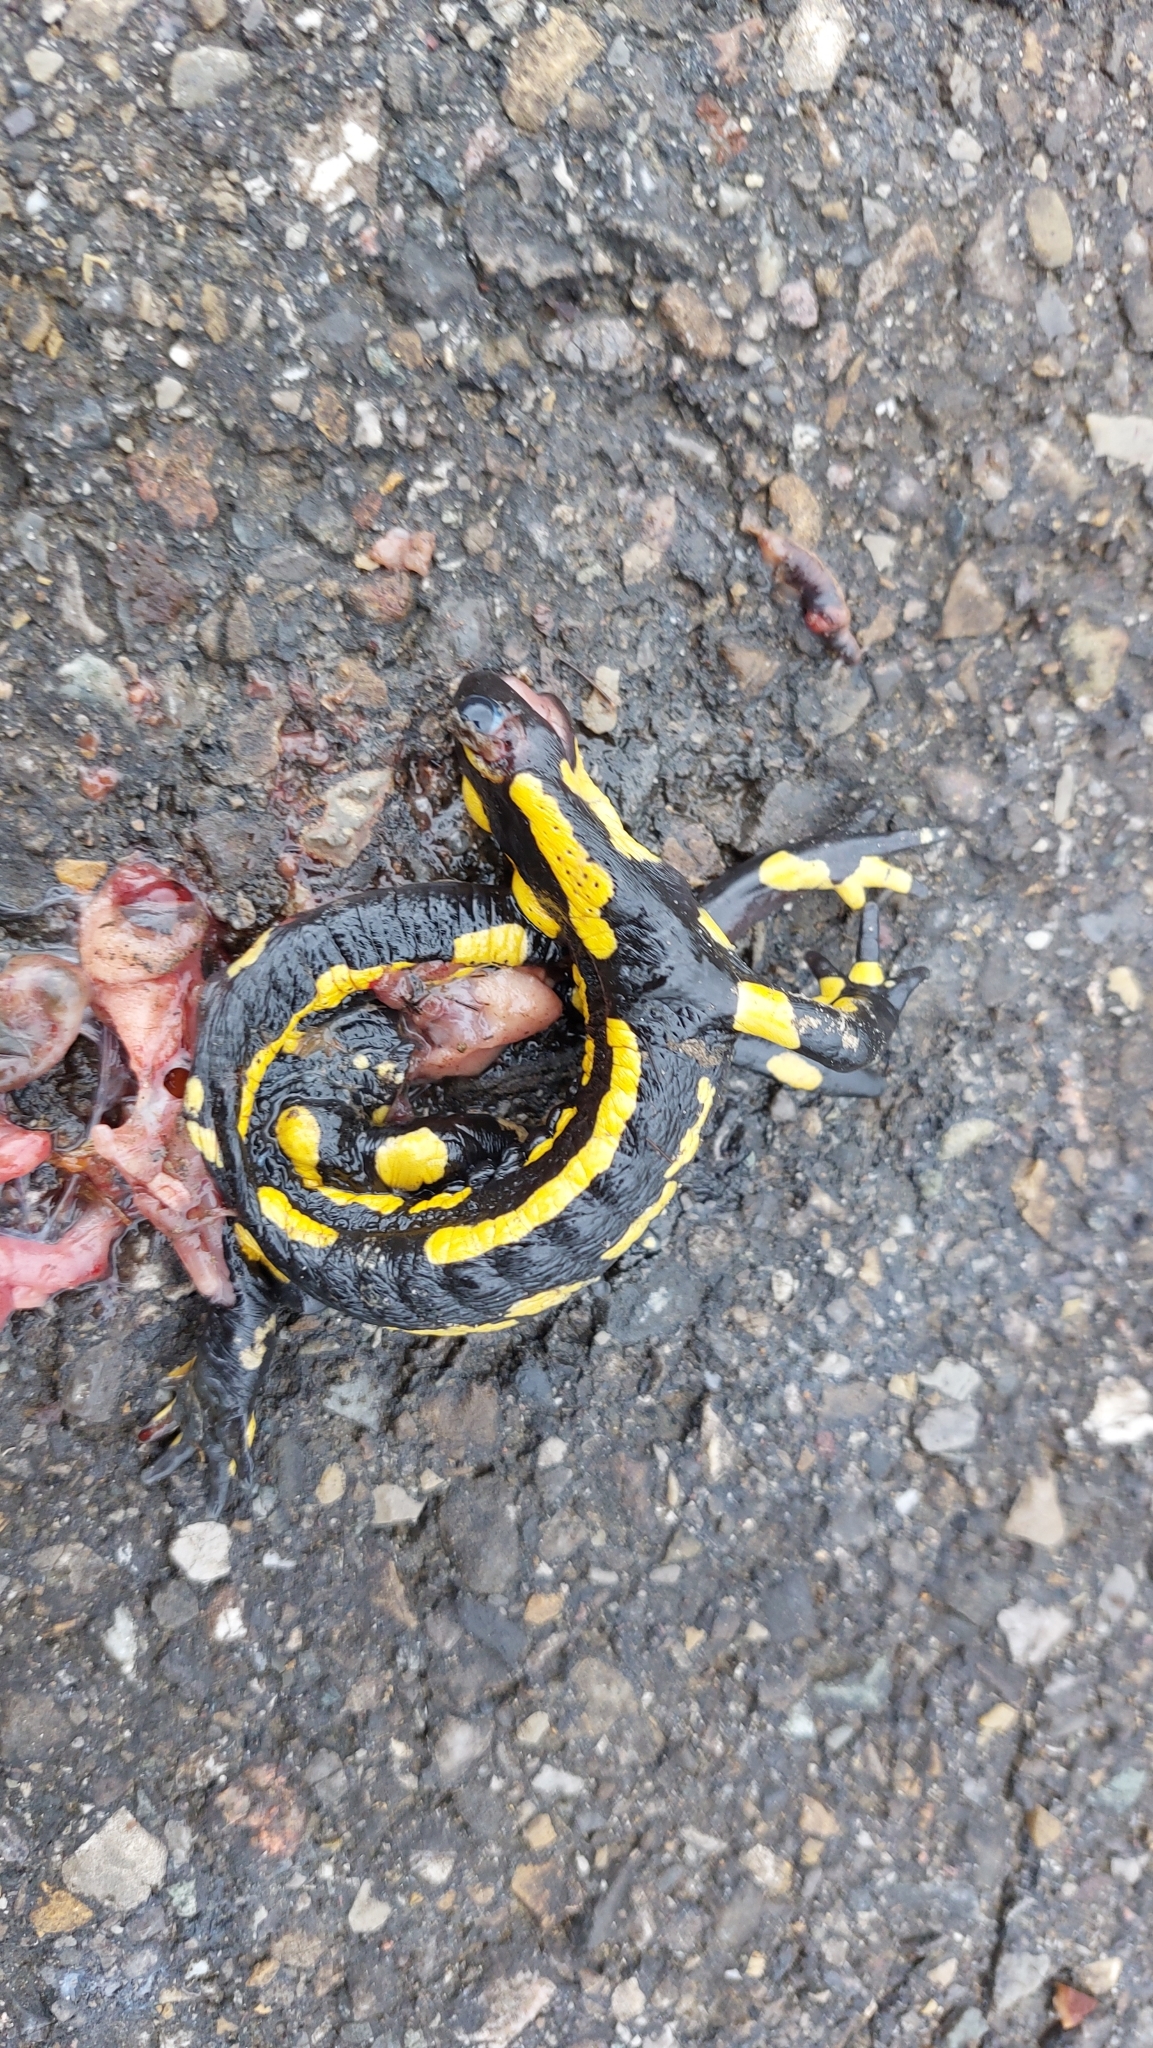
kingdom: Animalia
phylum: Chordata
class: Amphibia
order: Caudata
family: Salamandridae
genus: Salamandra
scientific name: Salamandra salamandra
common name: Fire salamander
